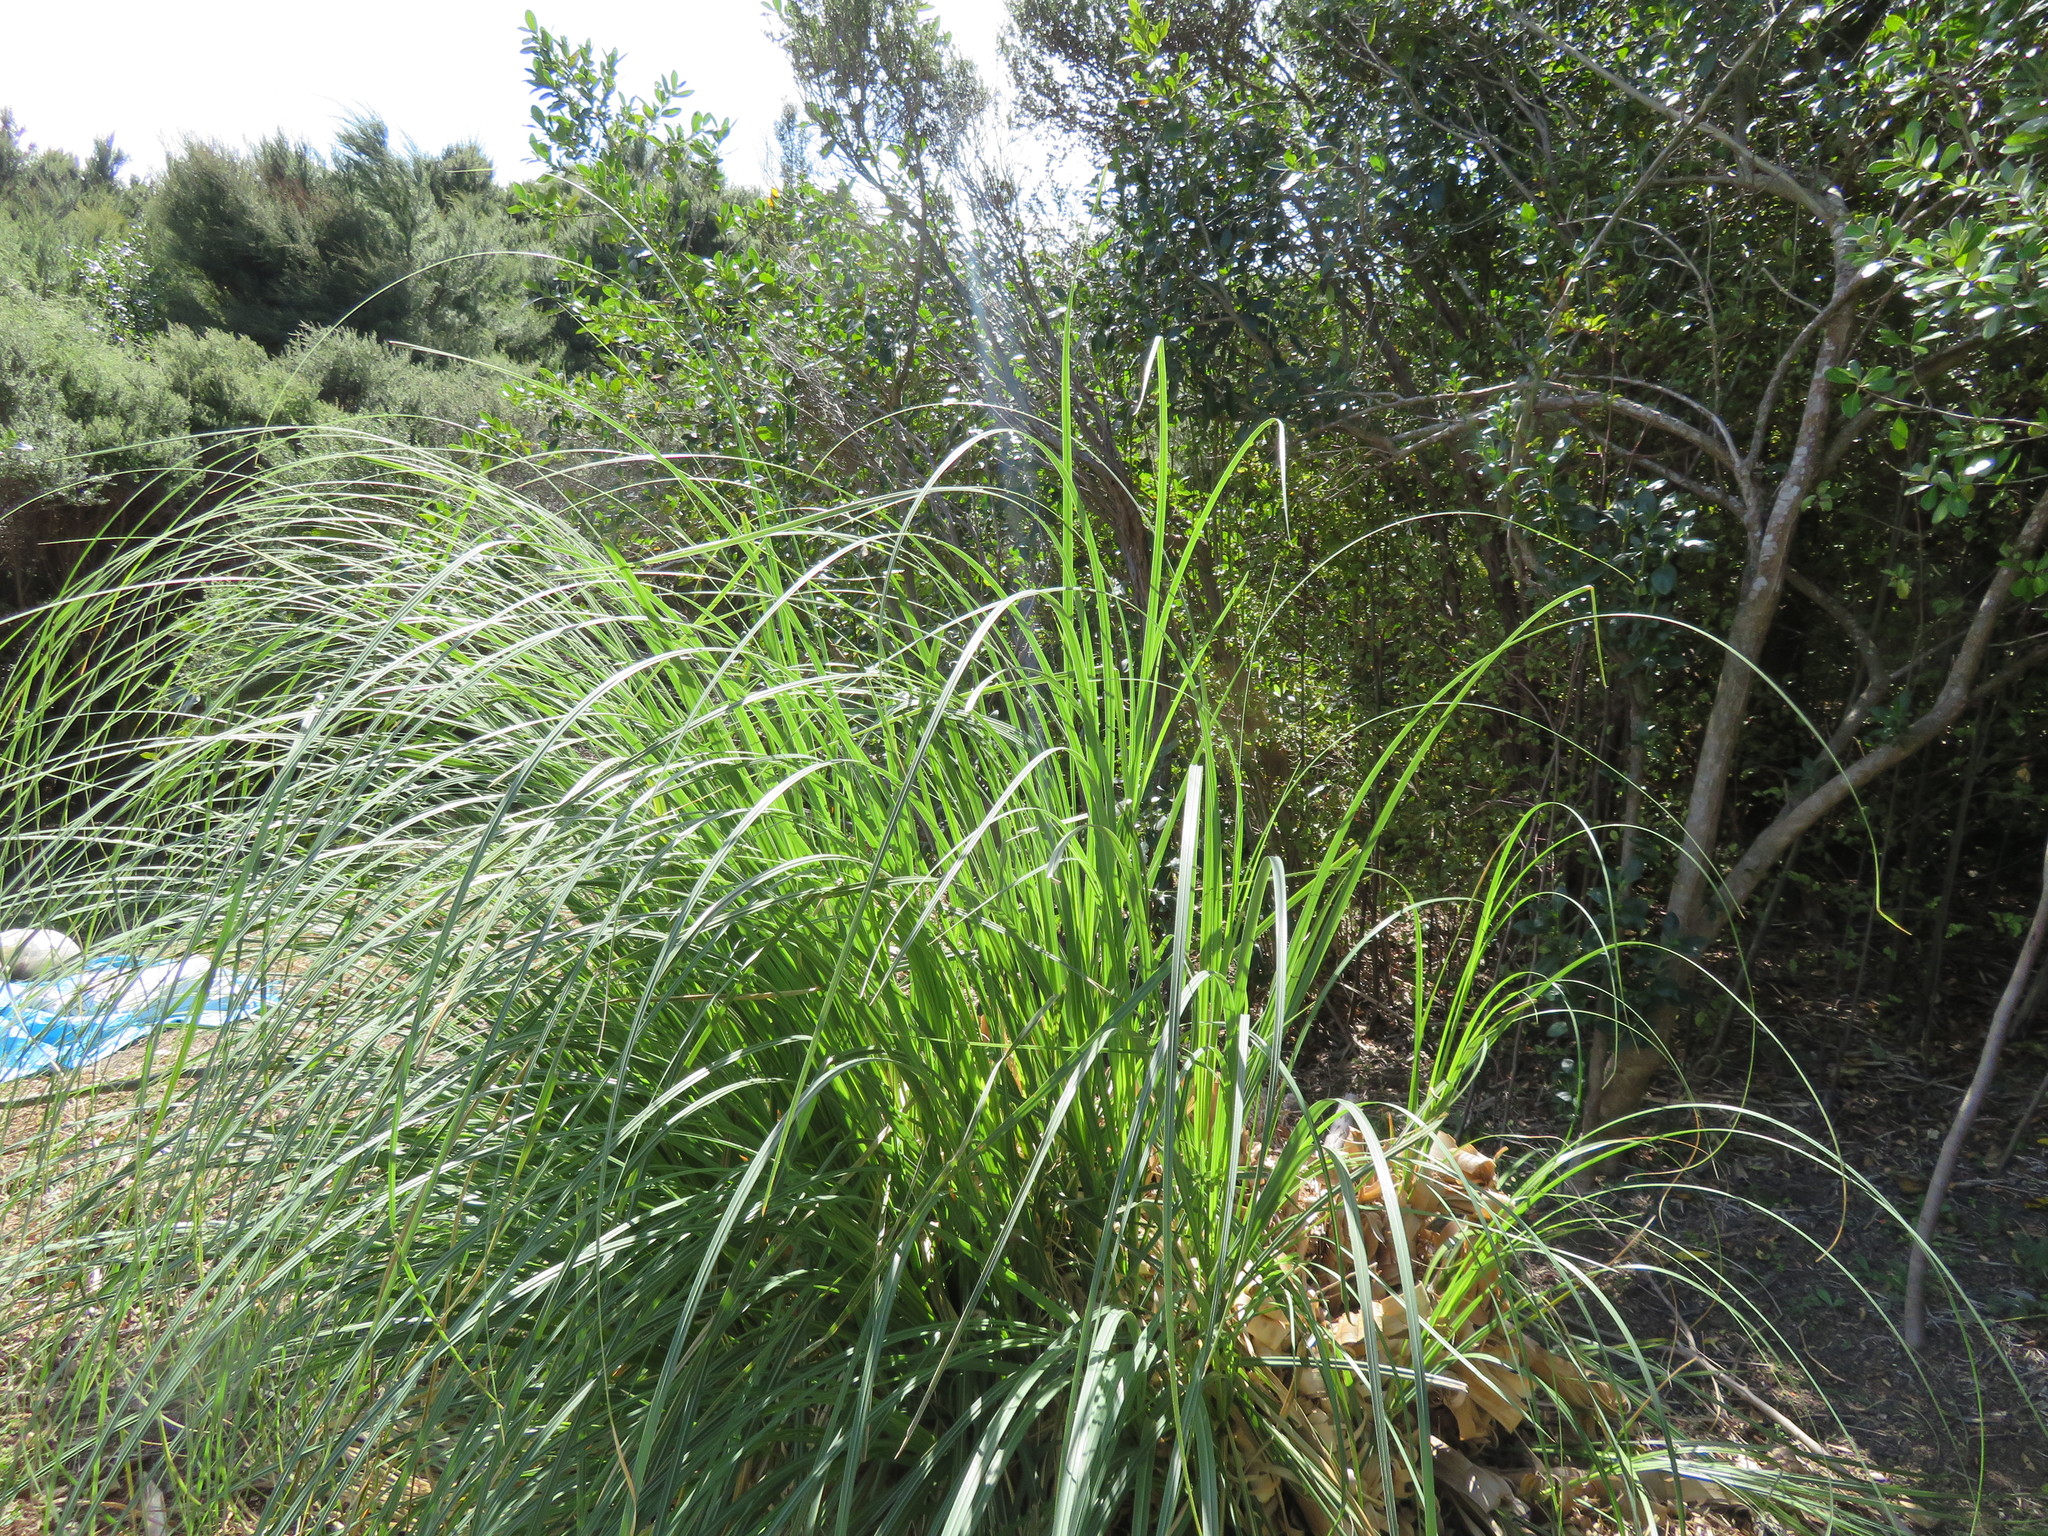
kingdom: Plantae
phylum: Tracheophyta
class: Magnoliopsida
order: Apiales
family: Pittosporaceae
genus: Pittosporum
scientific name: Pittosporum crassifolium
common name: Karo
